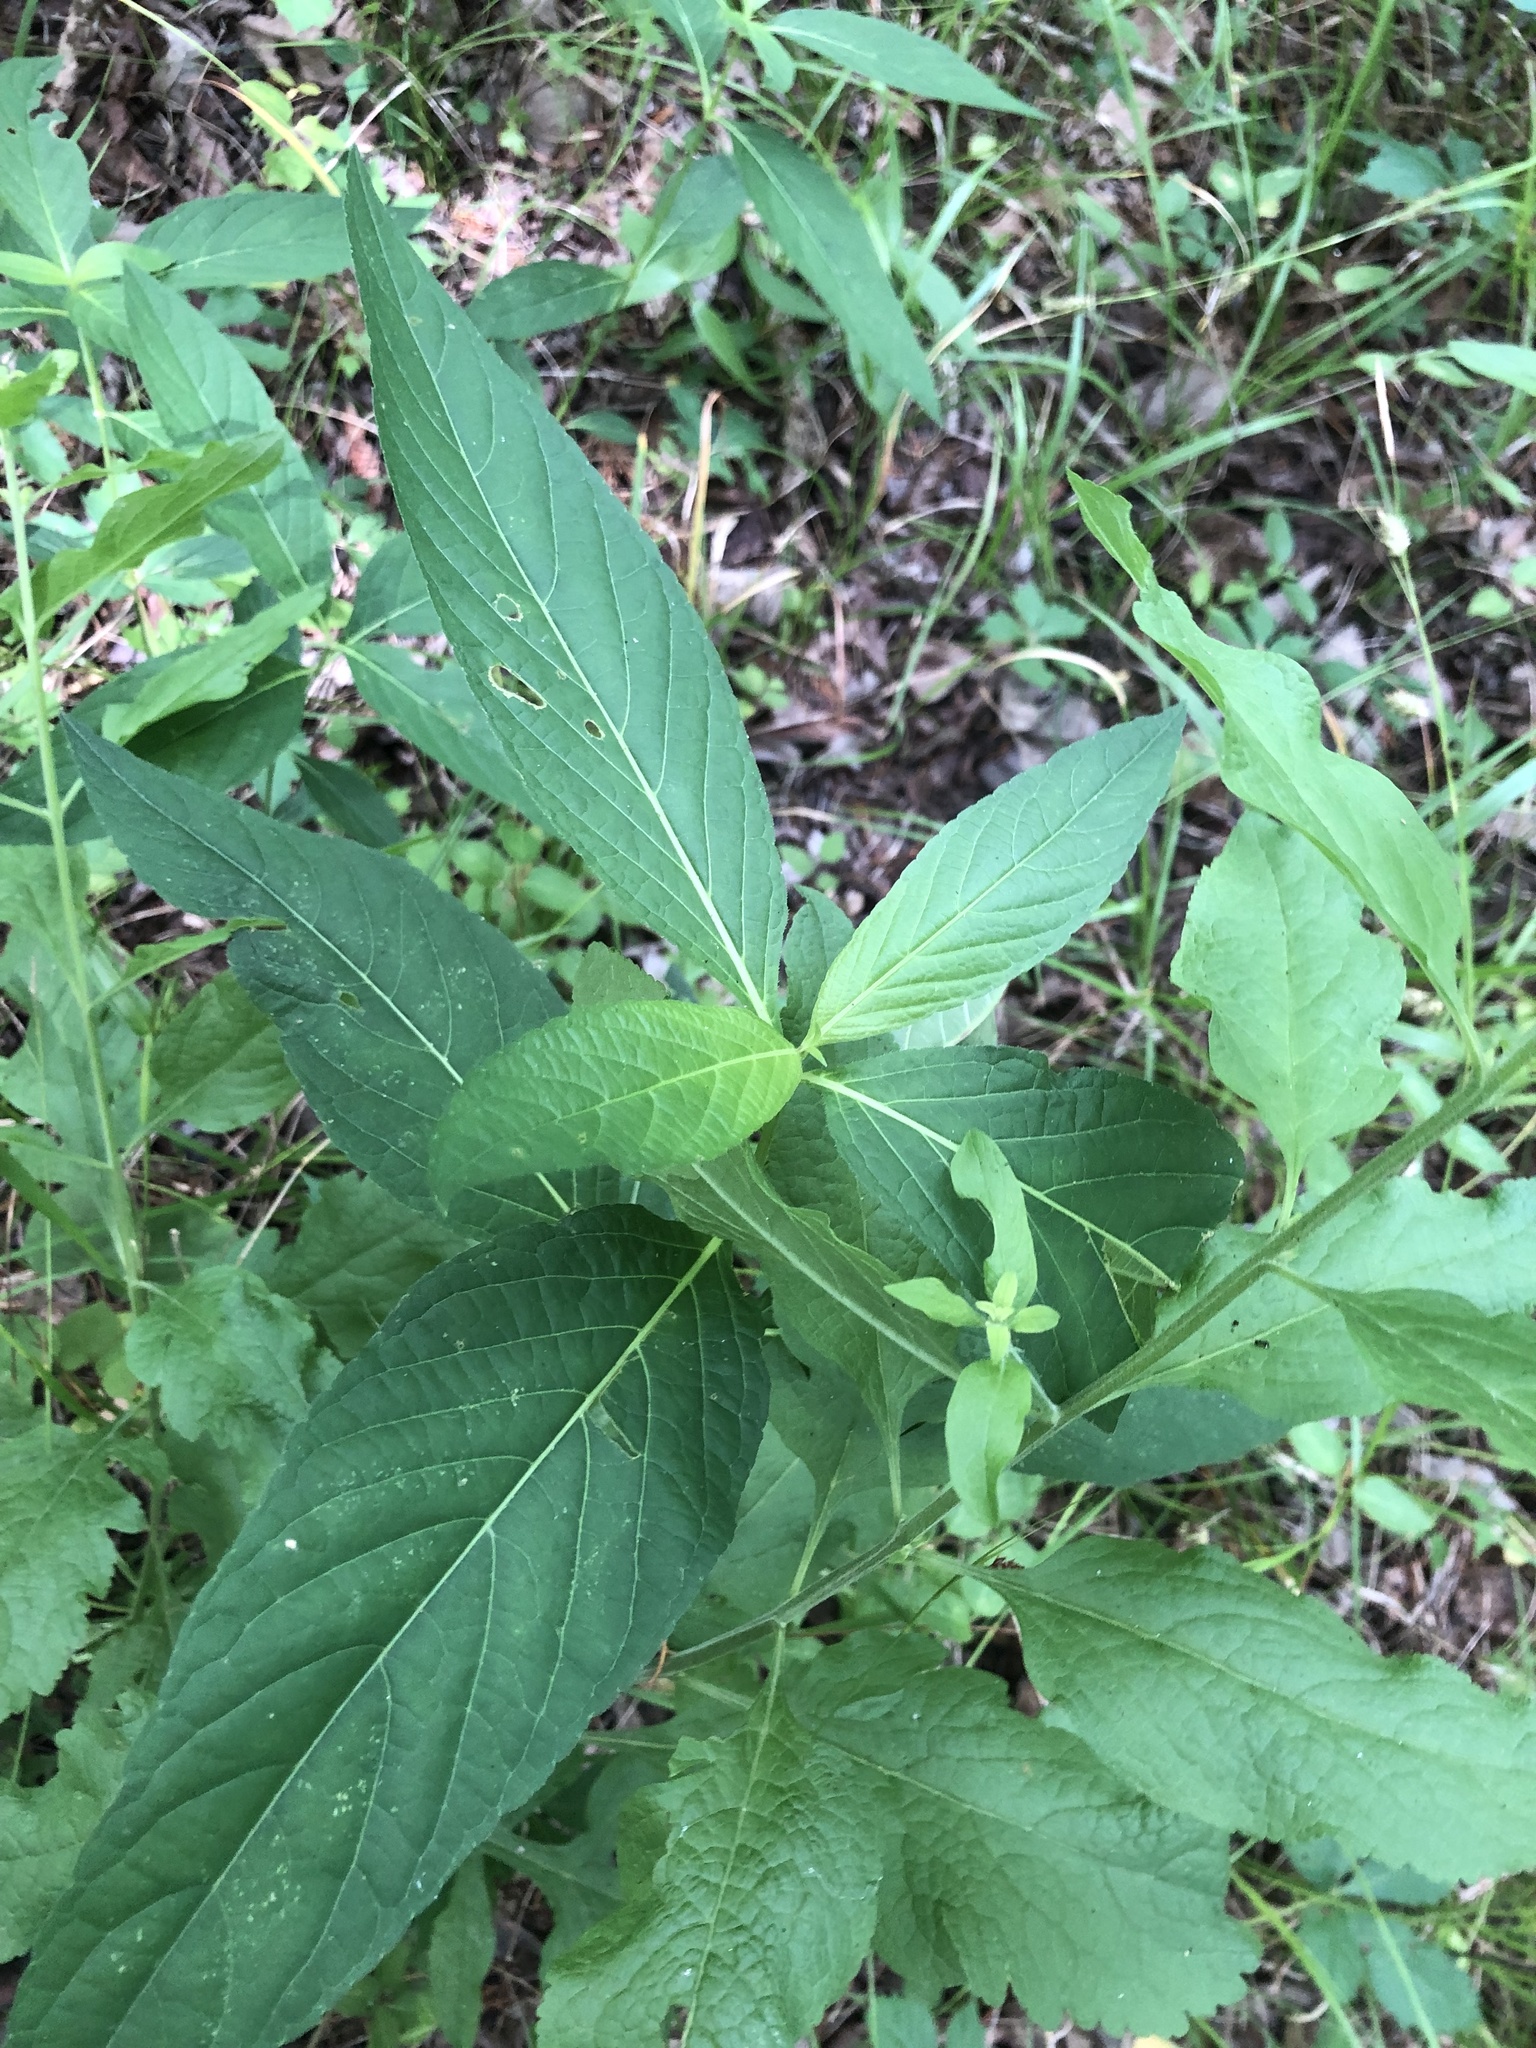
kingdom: Plantae
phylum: Tracheophyta
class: Magnoliopsida
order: Lamiales
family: Acanthaceae
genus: Ruellia
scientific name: Ruellia strepens
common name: Limestone wild petunia
